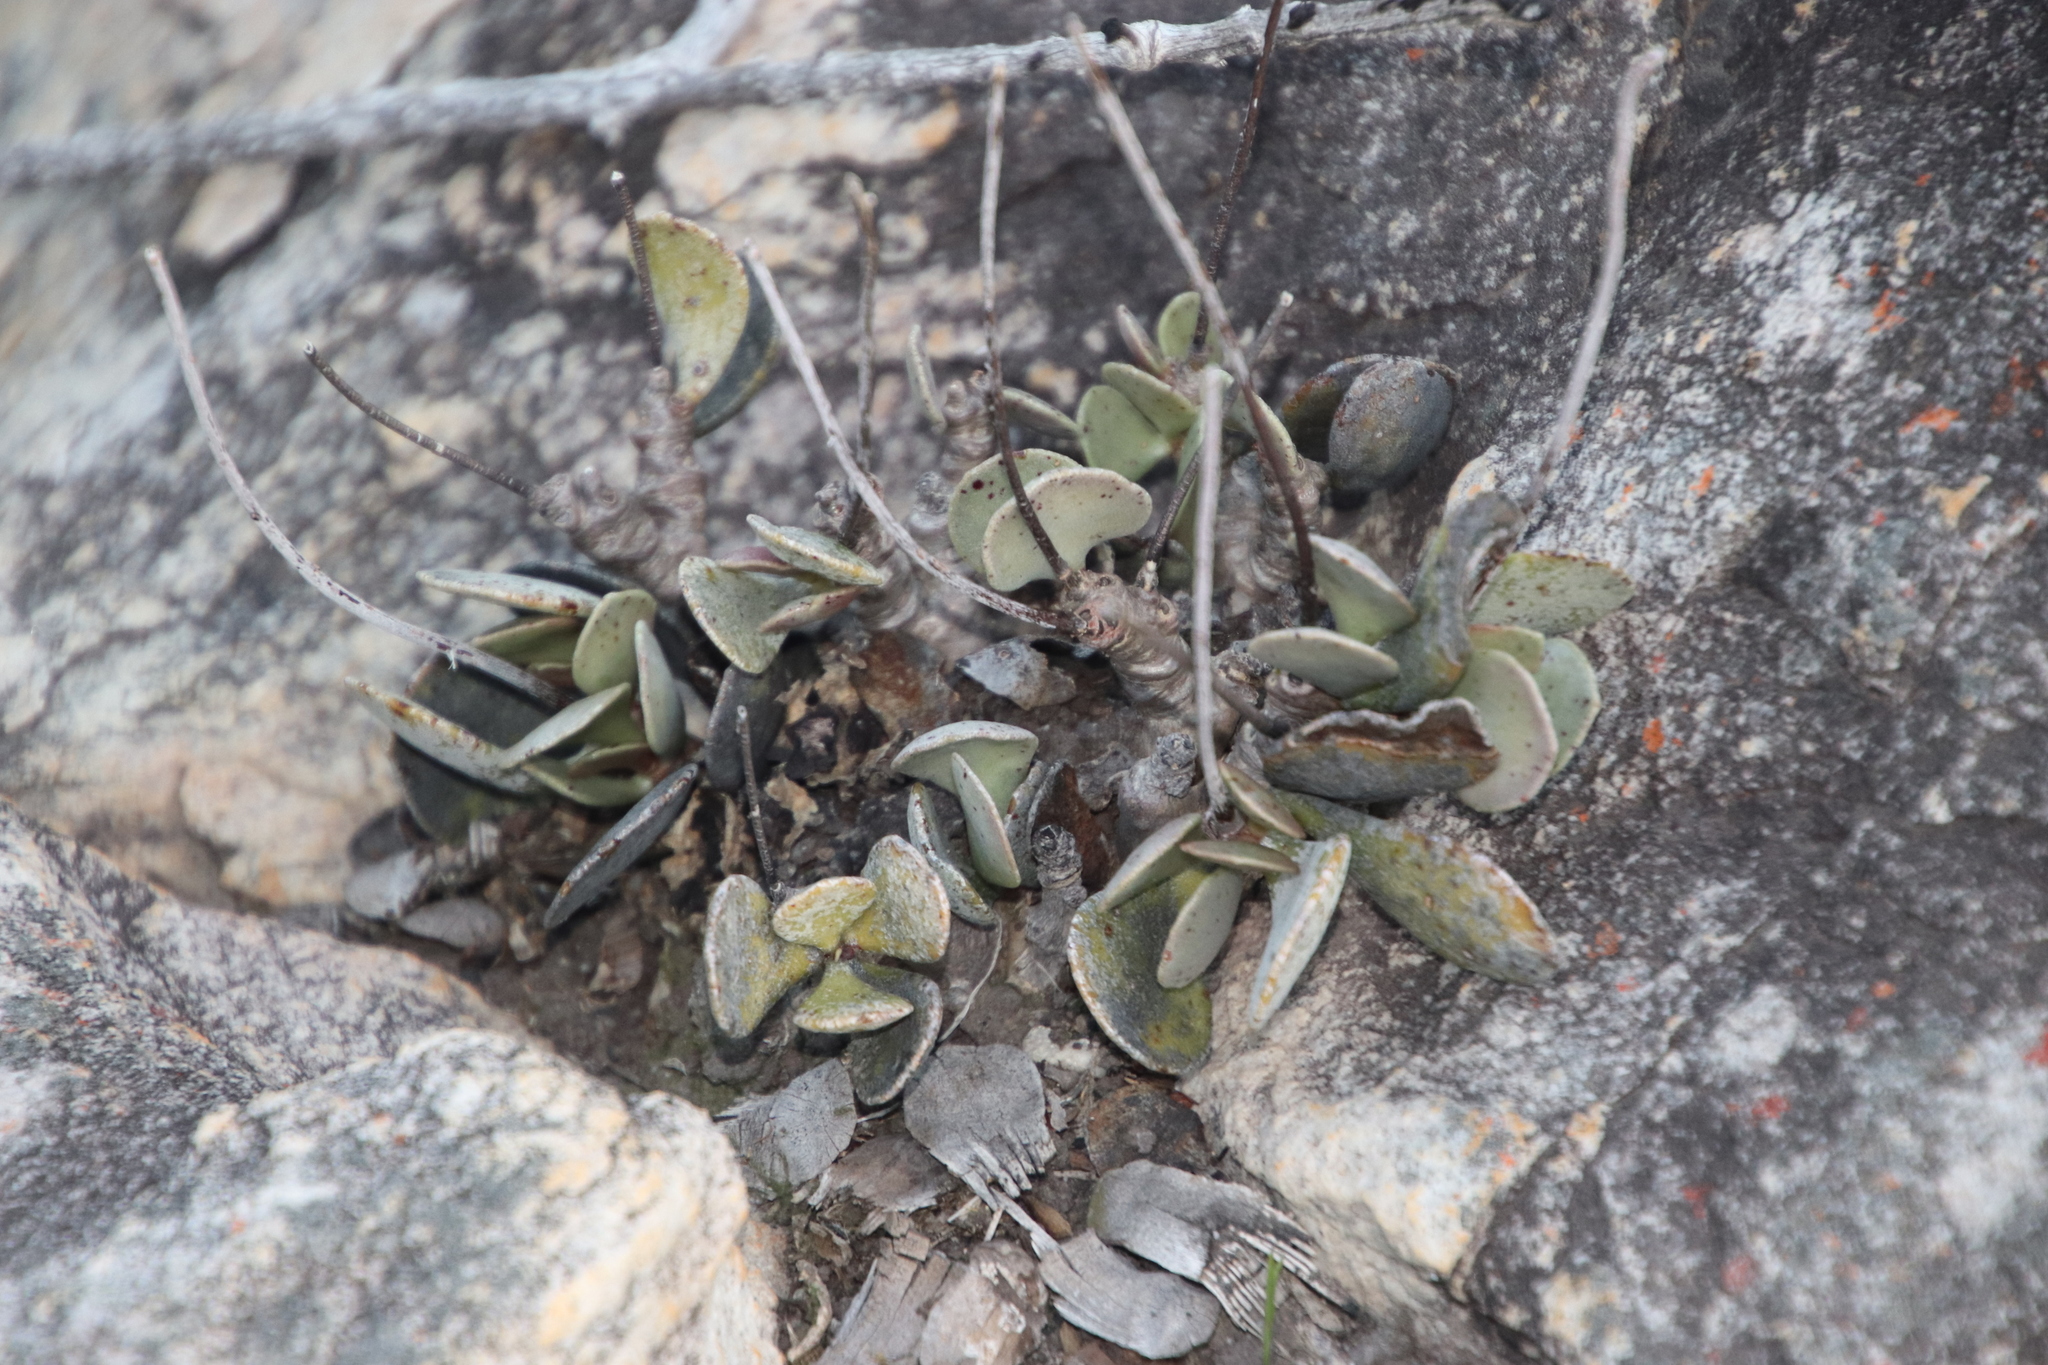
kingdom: Plantae
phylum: Tracheophyta
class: Magnoliopsida
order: Saxifragales
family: Crassulaceae
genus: Adromischus
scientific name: Adromischus hemisphaericus
